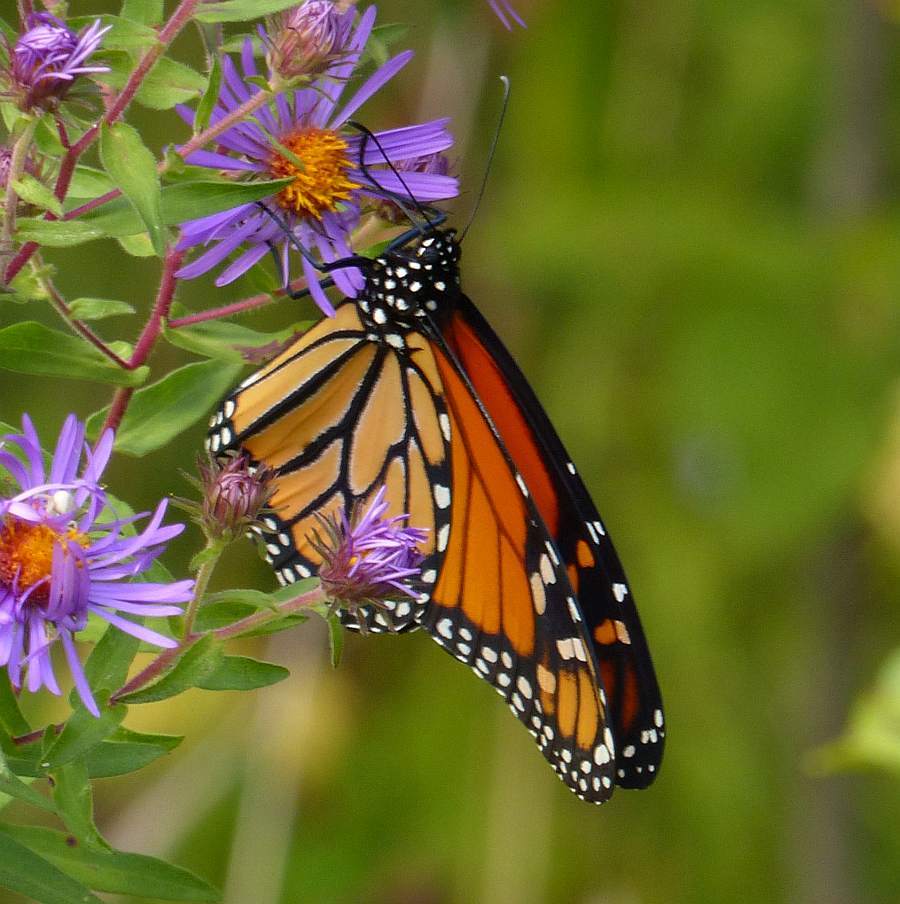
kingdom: Animalia
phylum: Arthropoda
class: Insecta
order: Lepidoptera
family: Nymphalidae
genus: Danaus
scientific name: Danaus plexippus
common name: Monarch
